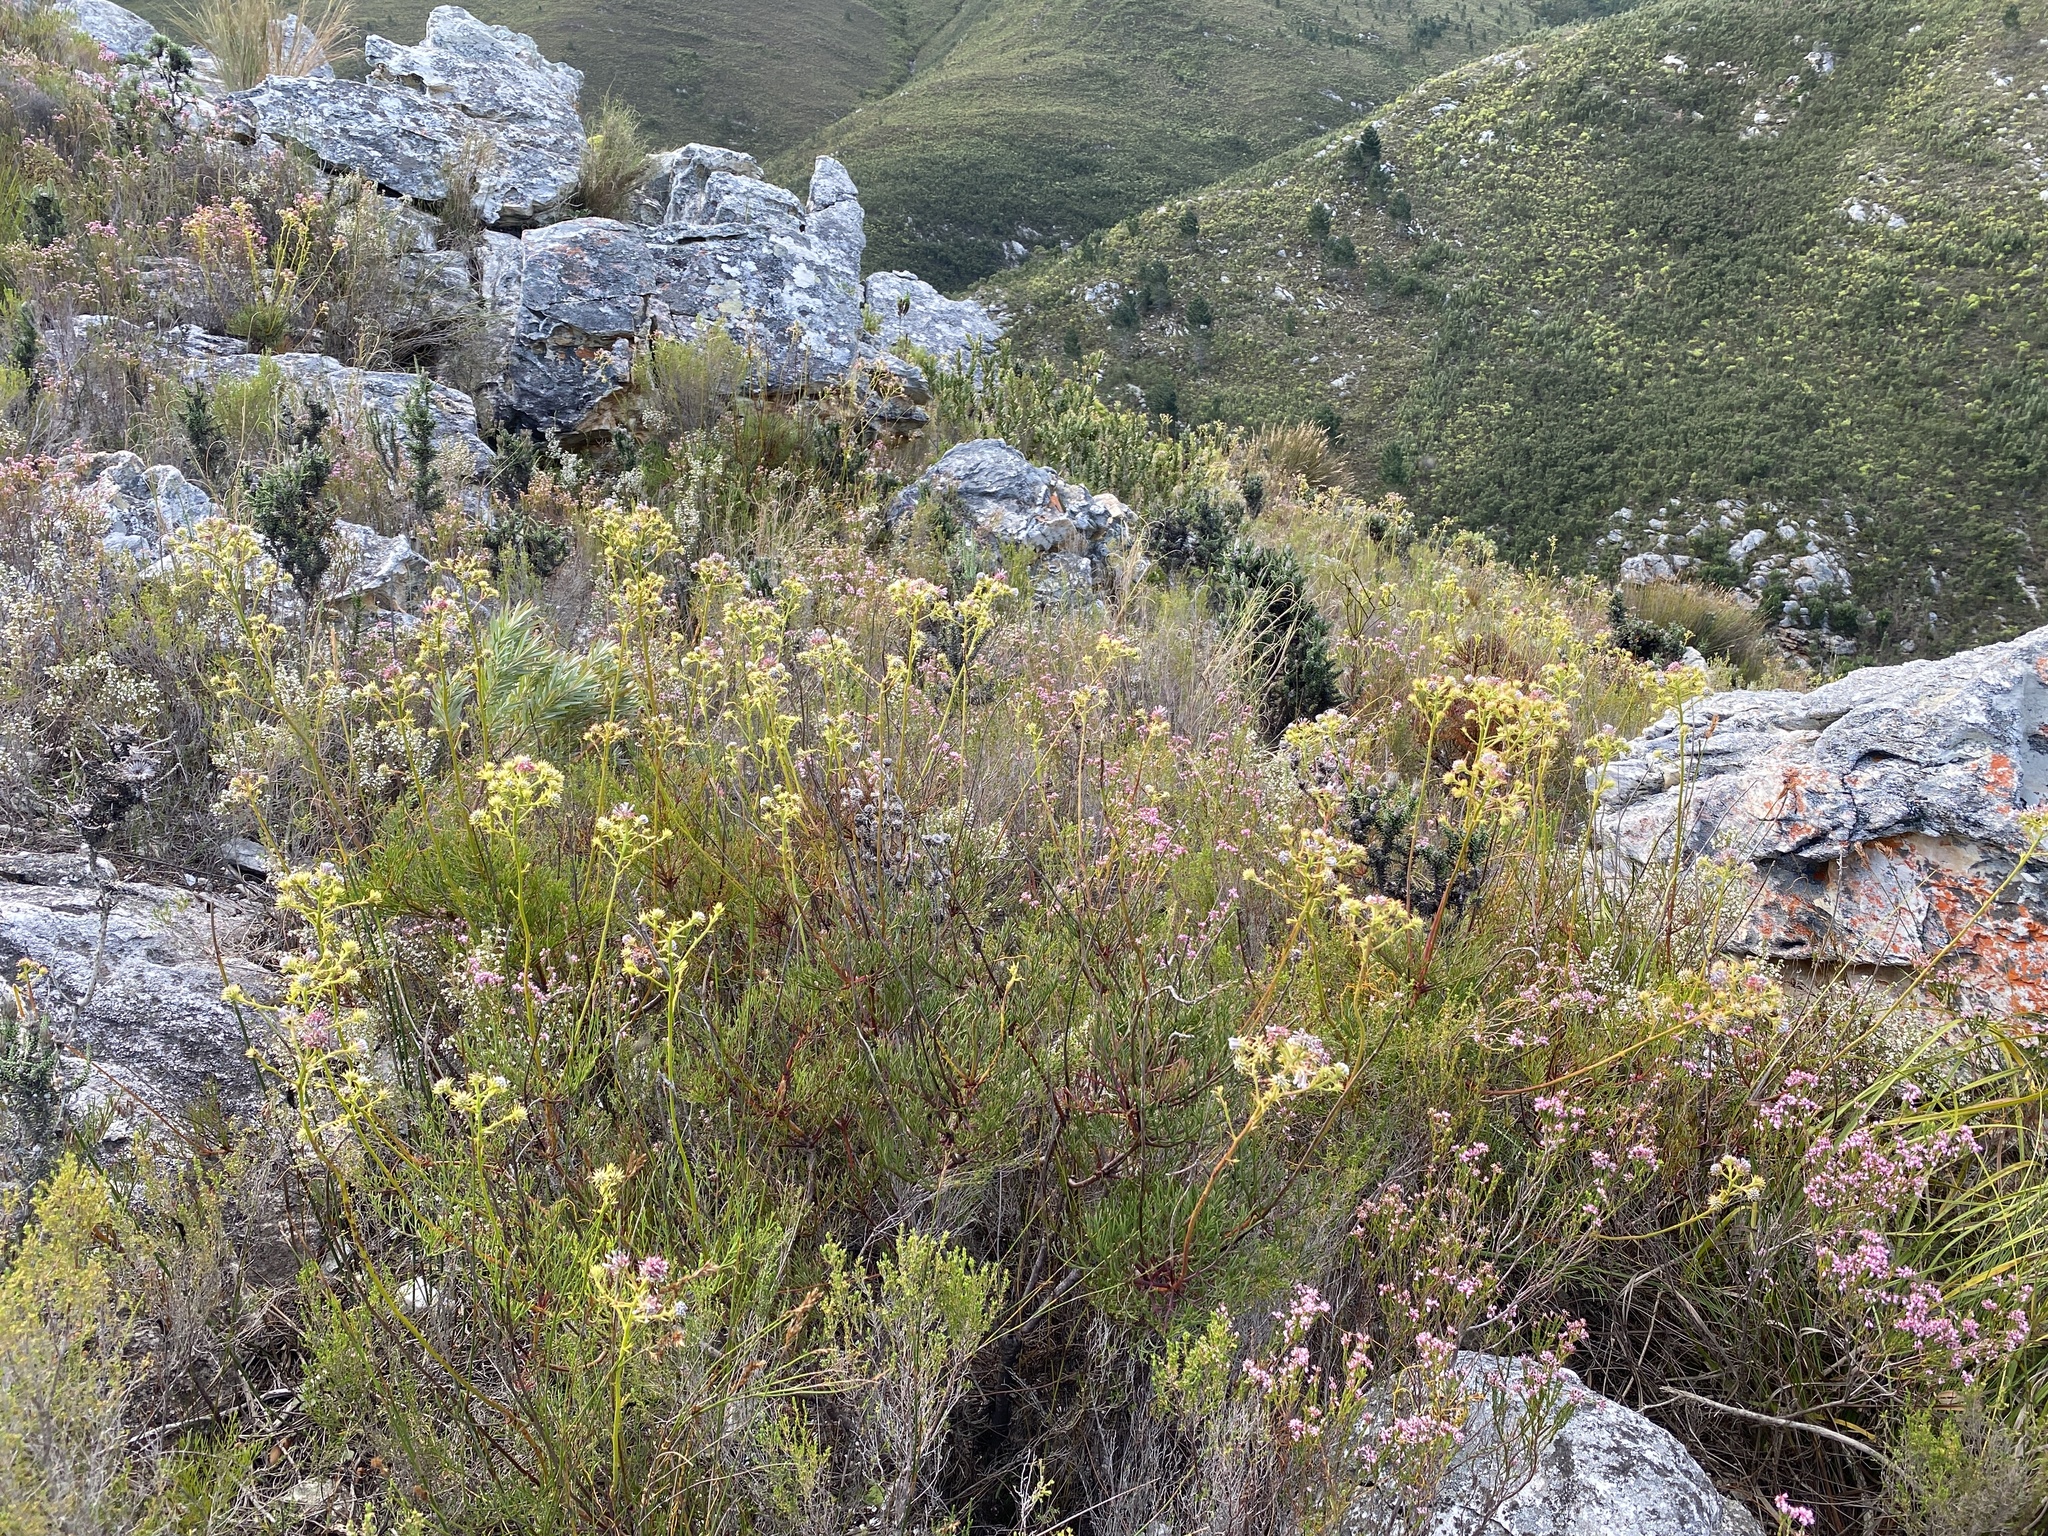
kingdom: Plantae
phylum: Tracheophyta
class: Magnoliopsida
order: Proteales
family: Proteaceae
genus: Serruria
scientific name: Serruria elongata
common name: Long-stalk spiderhead
